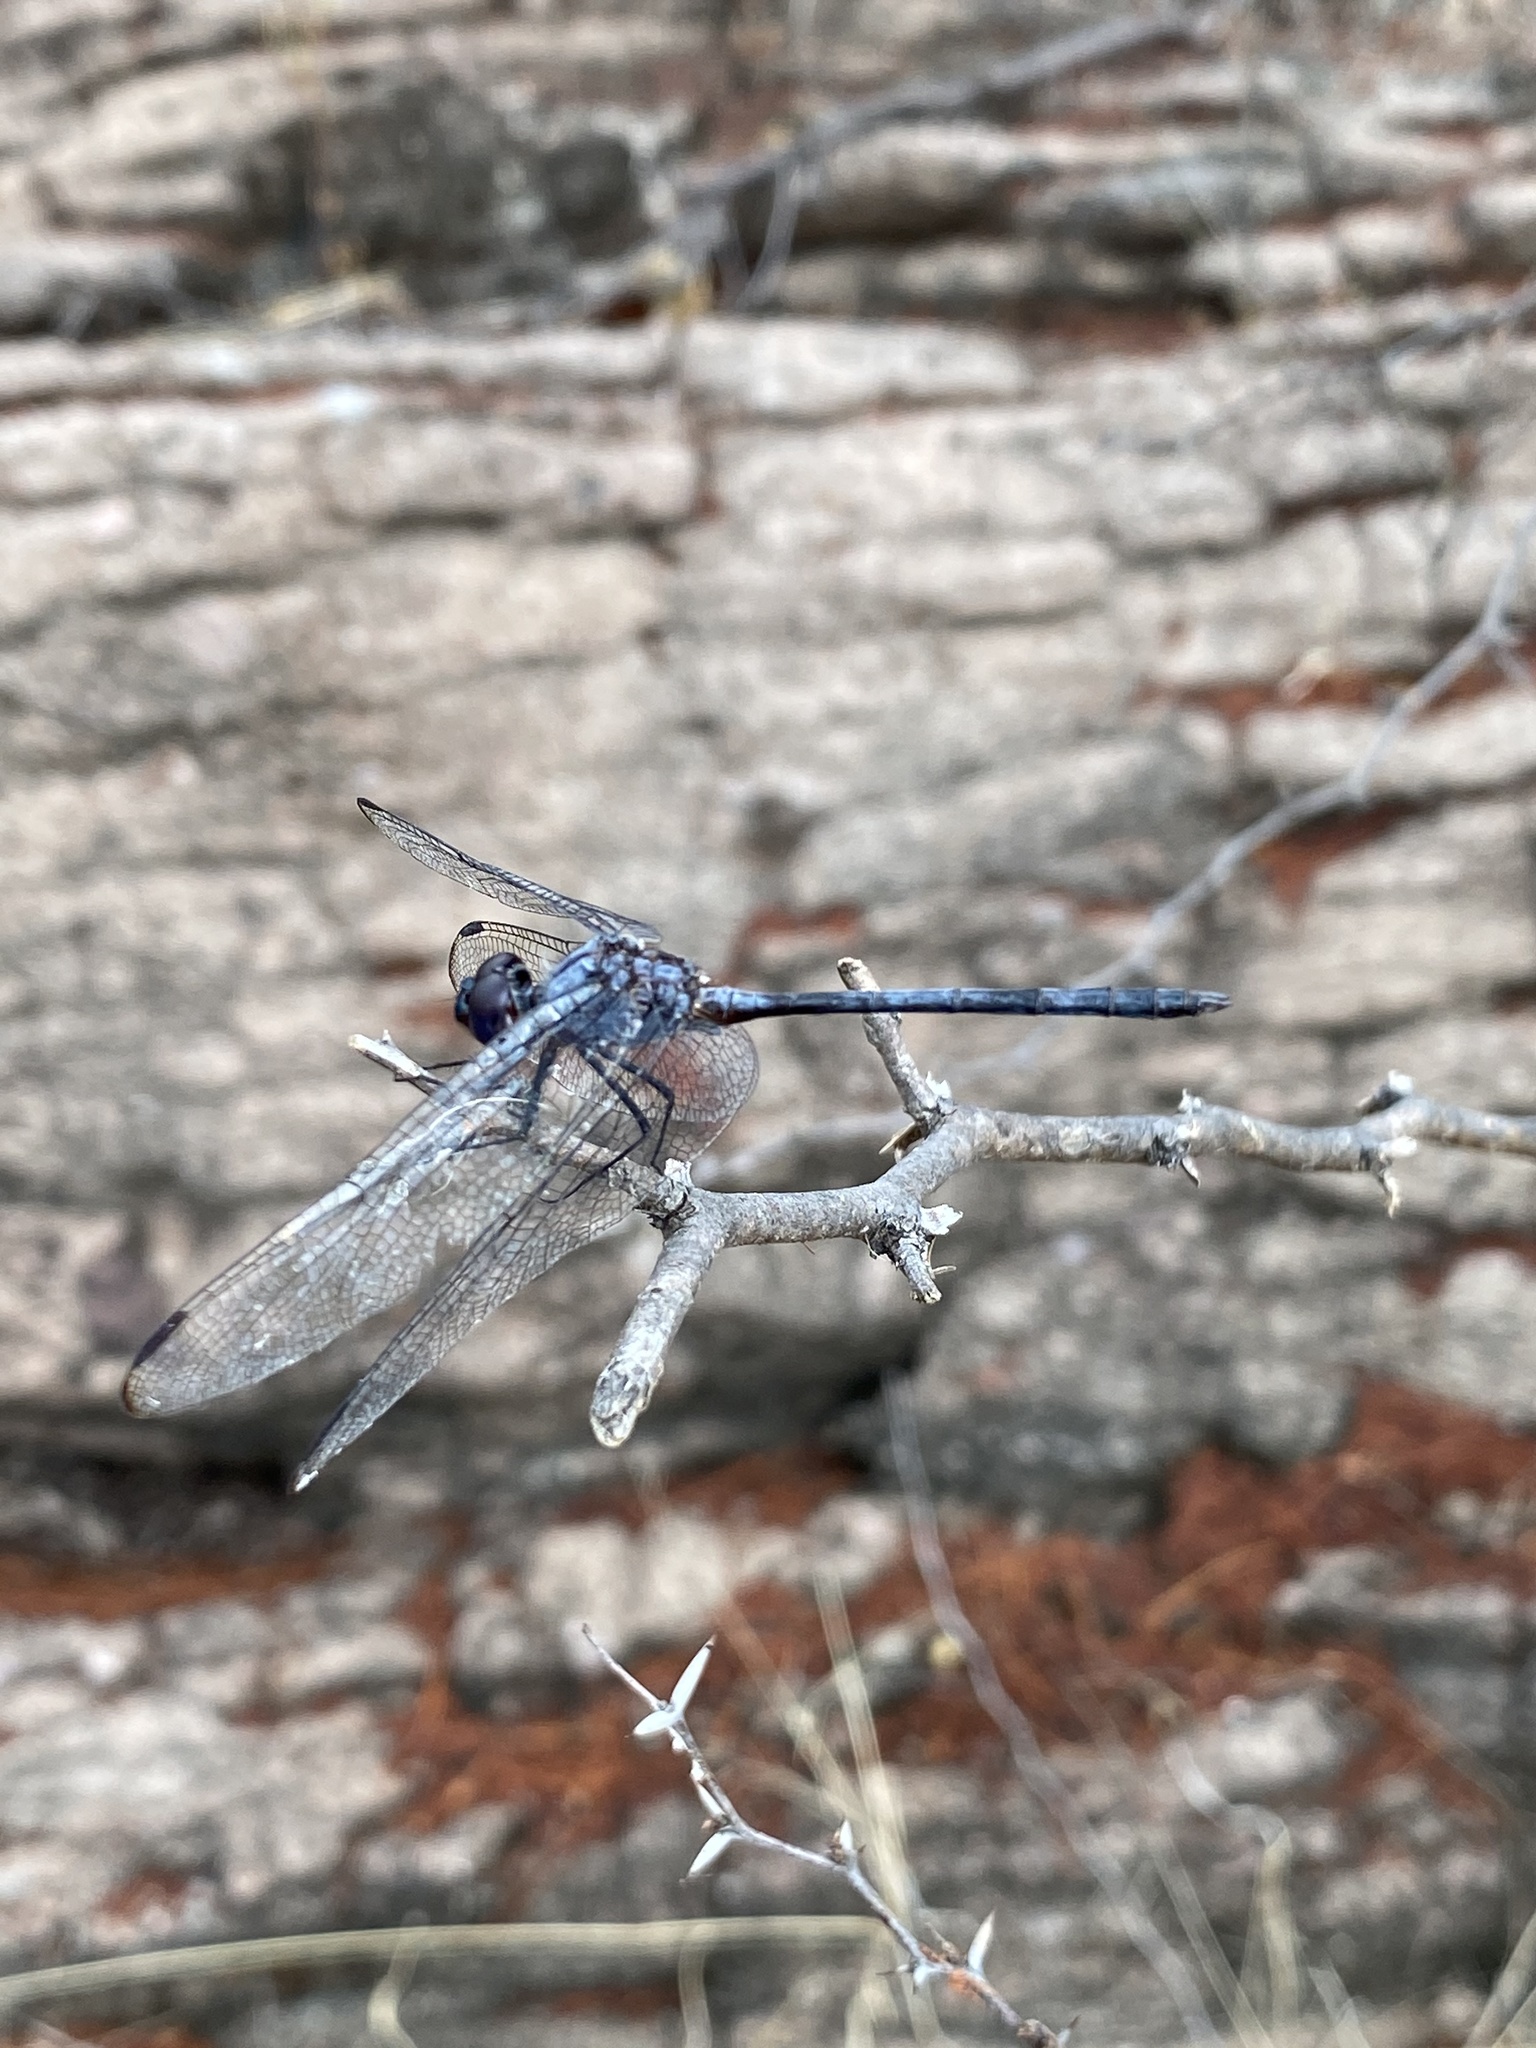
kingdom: Animalia
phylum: Arthropoda
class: Insecta
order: Odonata
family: Libellulidae
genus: Dythemis
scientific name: Dythemis nigrescens
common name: Black setwing
